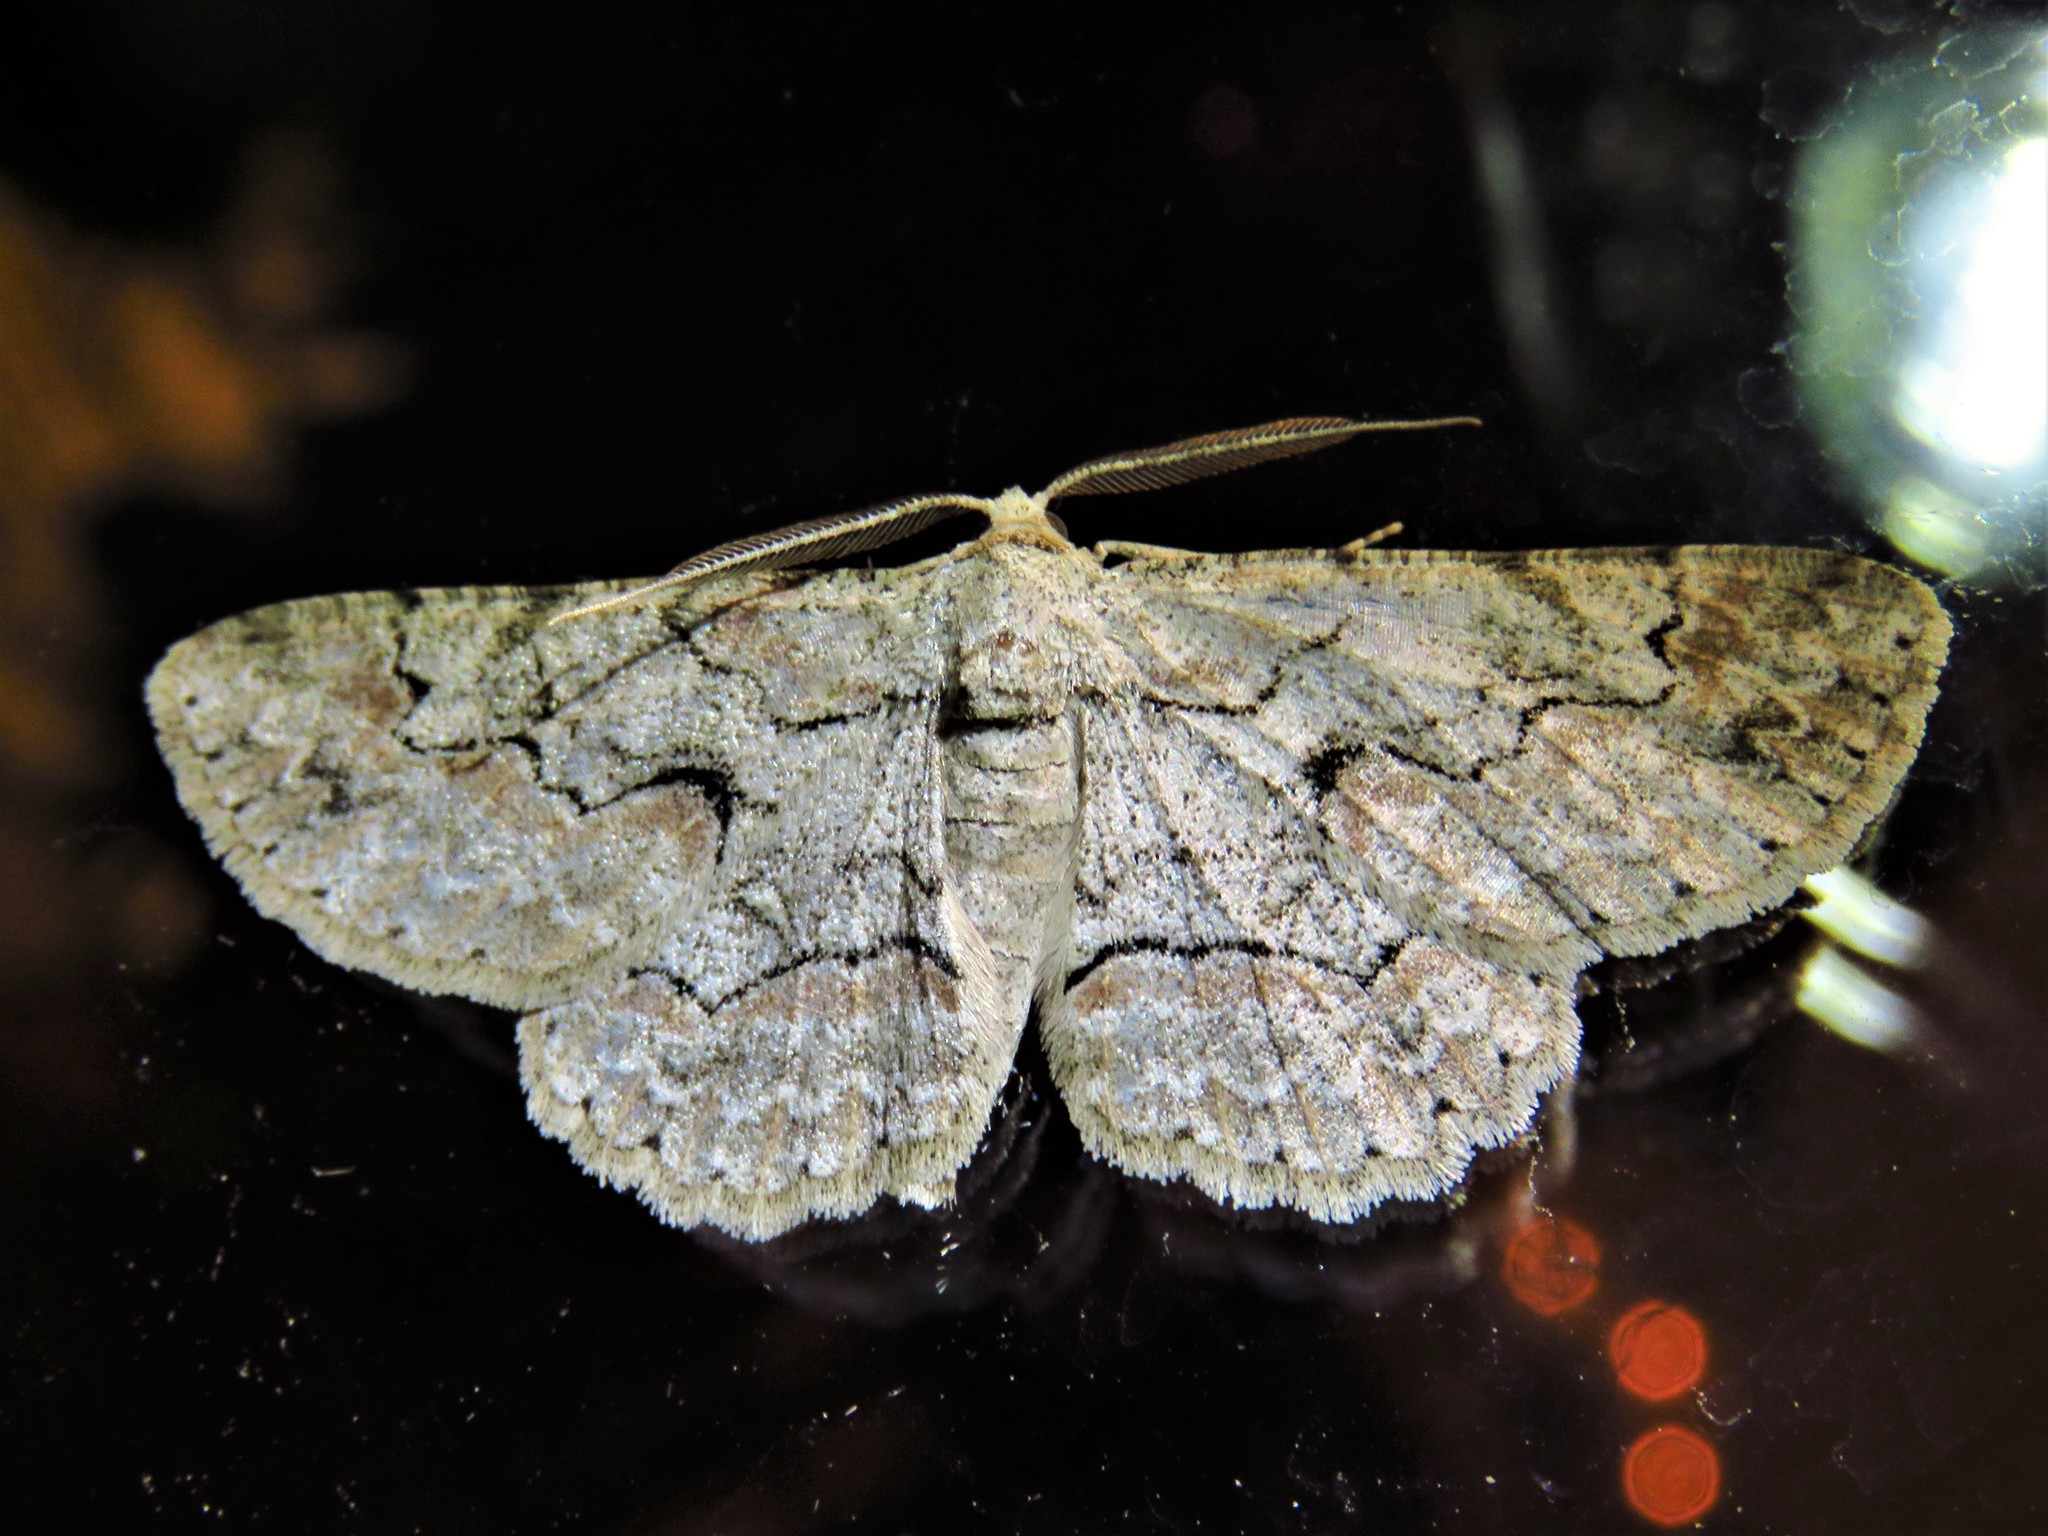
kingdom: Animalia
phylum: Arthropoda
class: Insecta
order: Lepidoptera
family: Geometridae
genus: Iridopsis
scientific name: Iridopsis defectaria
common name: Brown-shaded gray
